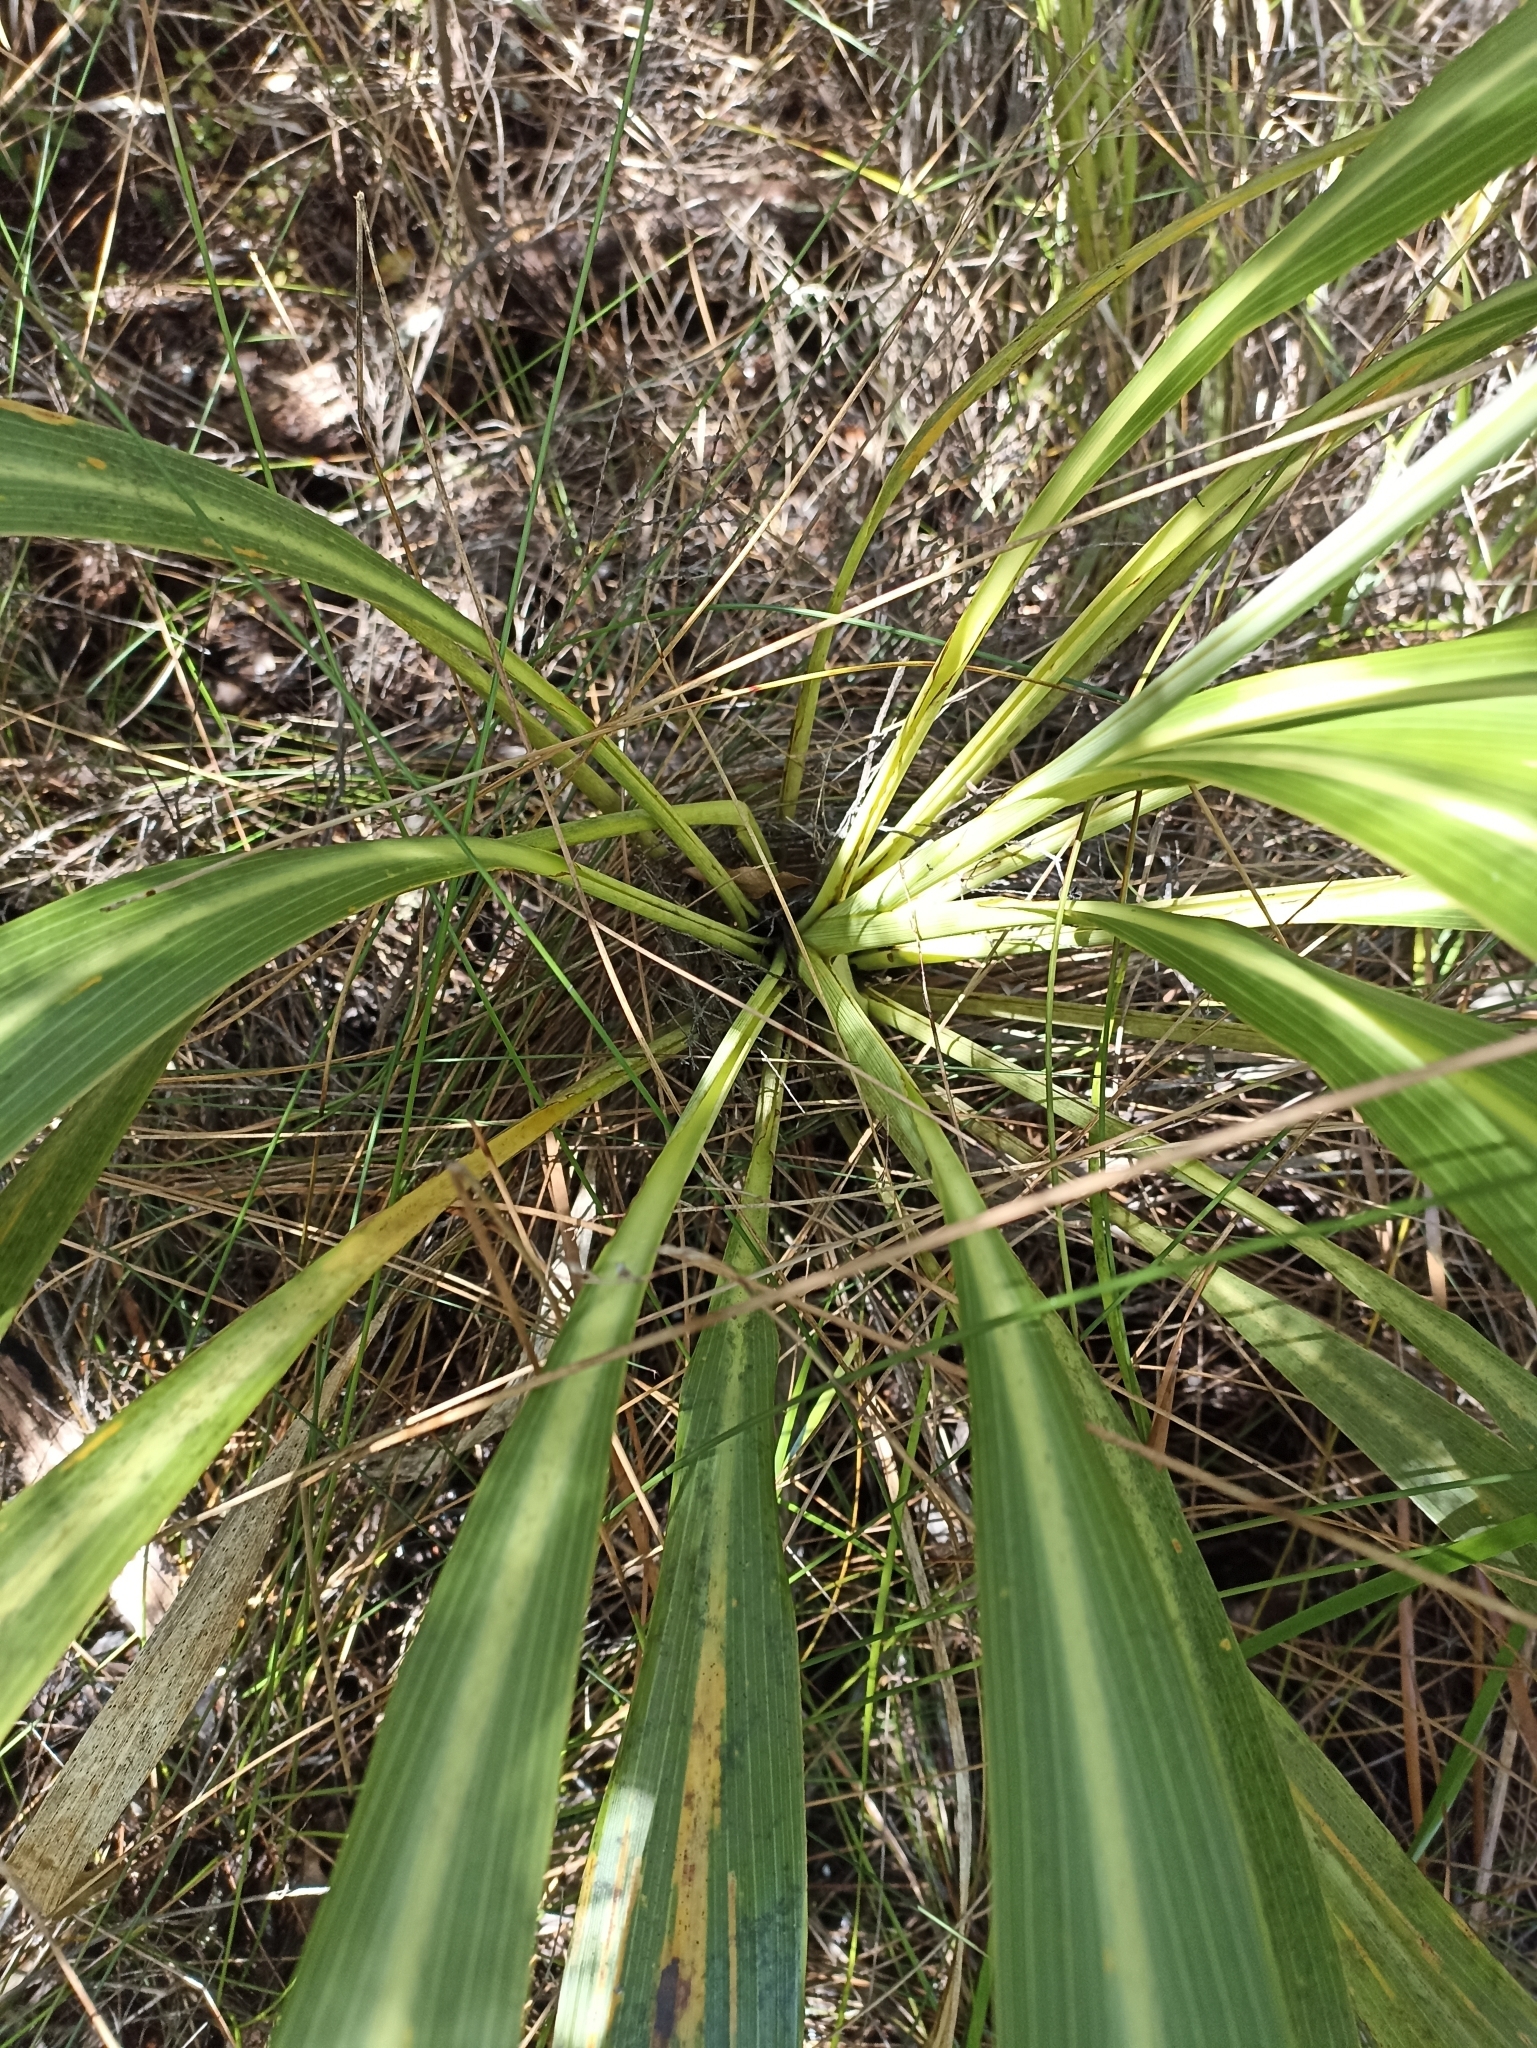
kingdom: Plantae
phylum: Tracheophyta
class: Liliopsida
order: Asparagales
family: Asparagaceae
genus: Cordyline
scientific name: Cordyline banksii
